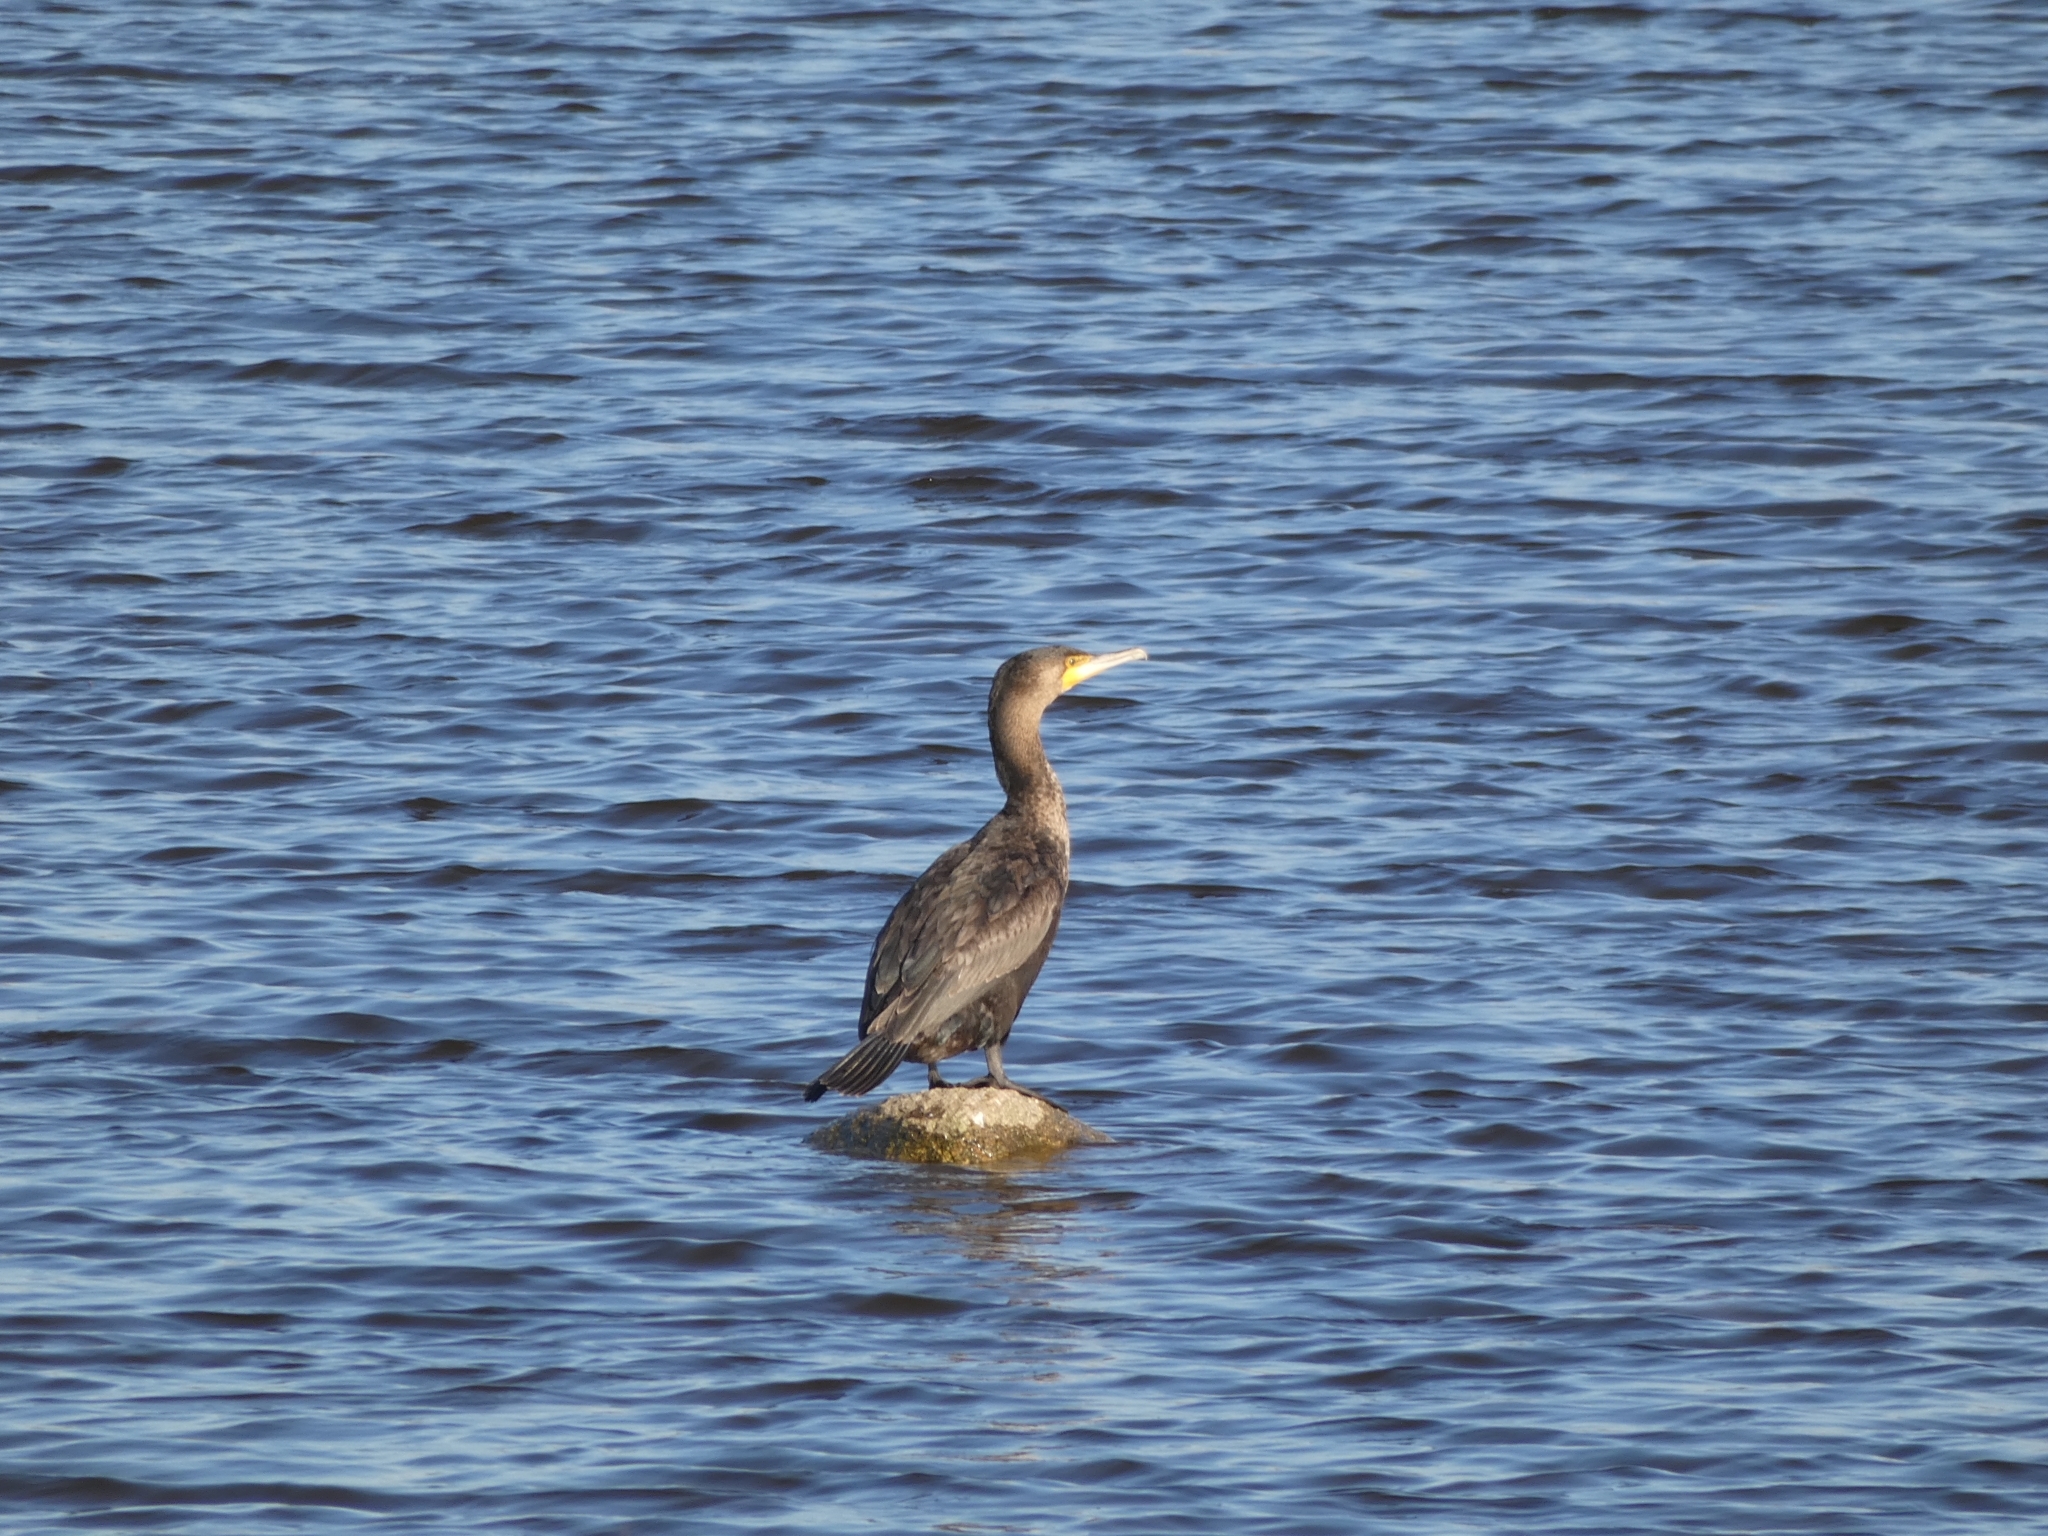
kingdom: Animalia
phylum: Chordata
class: Aves
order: Suliformes
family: Phalacrocoracidae
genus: Phalacrocorax
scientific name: Phalacrocorax carbo
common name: Great cormorant
